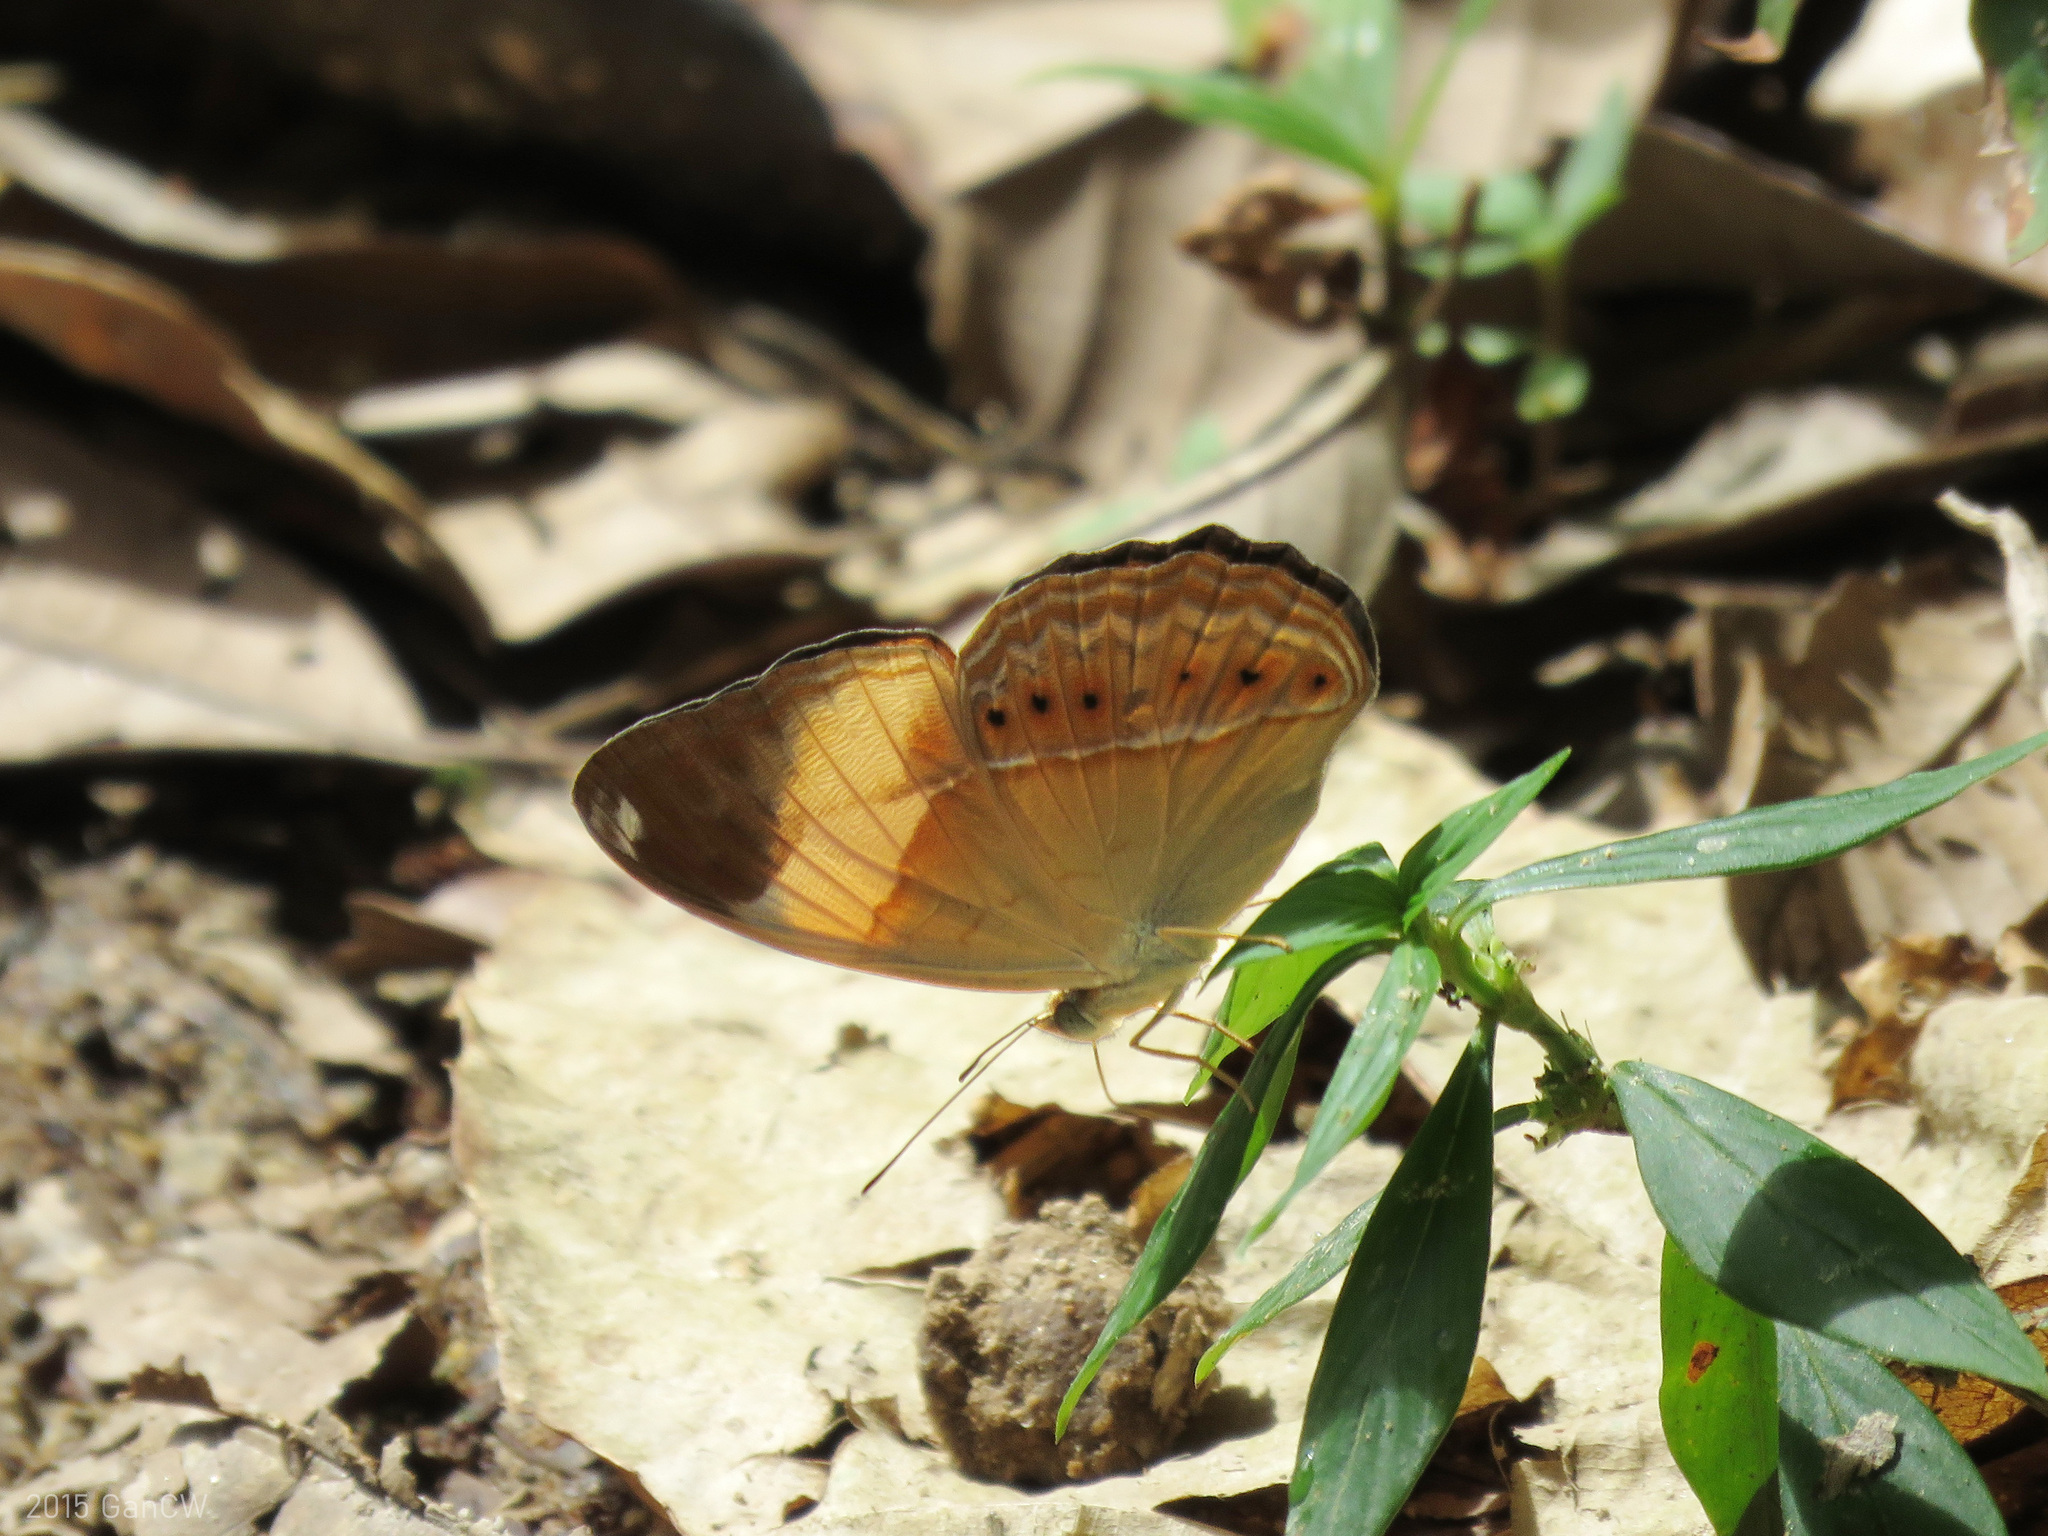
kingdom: Animalia
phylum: Arthropoda
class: Insecta
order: Lepidoptera
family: Nymphalidae
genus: Cirrochroa
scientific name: Cirrochroa orissa
